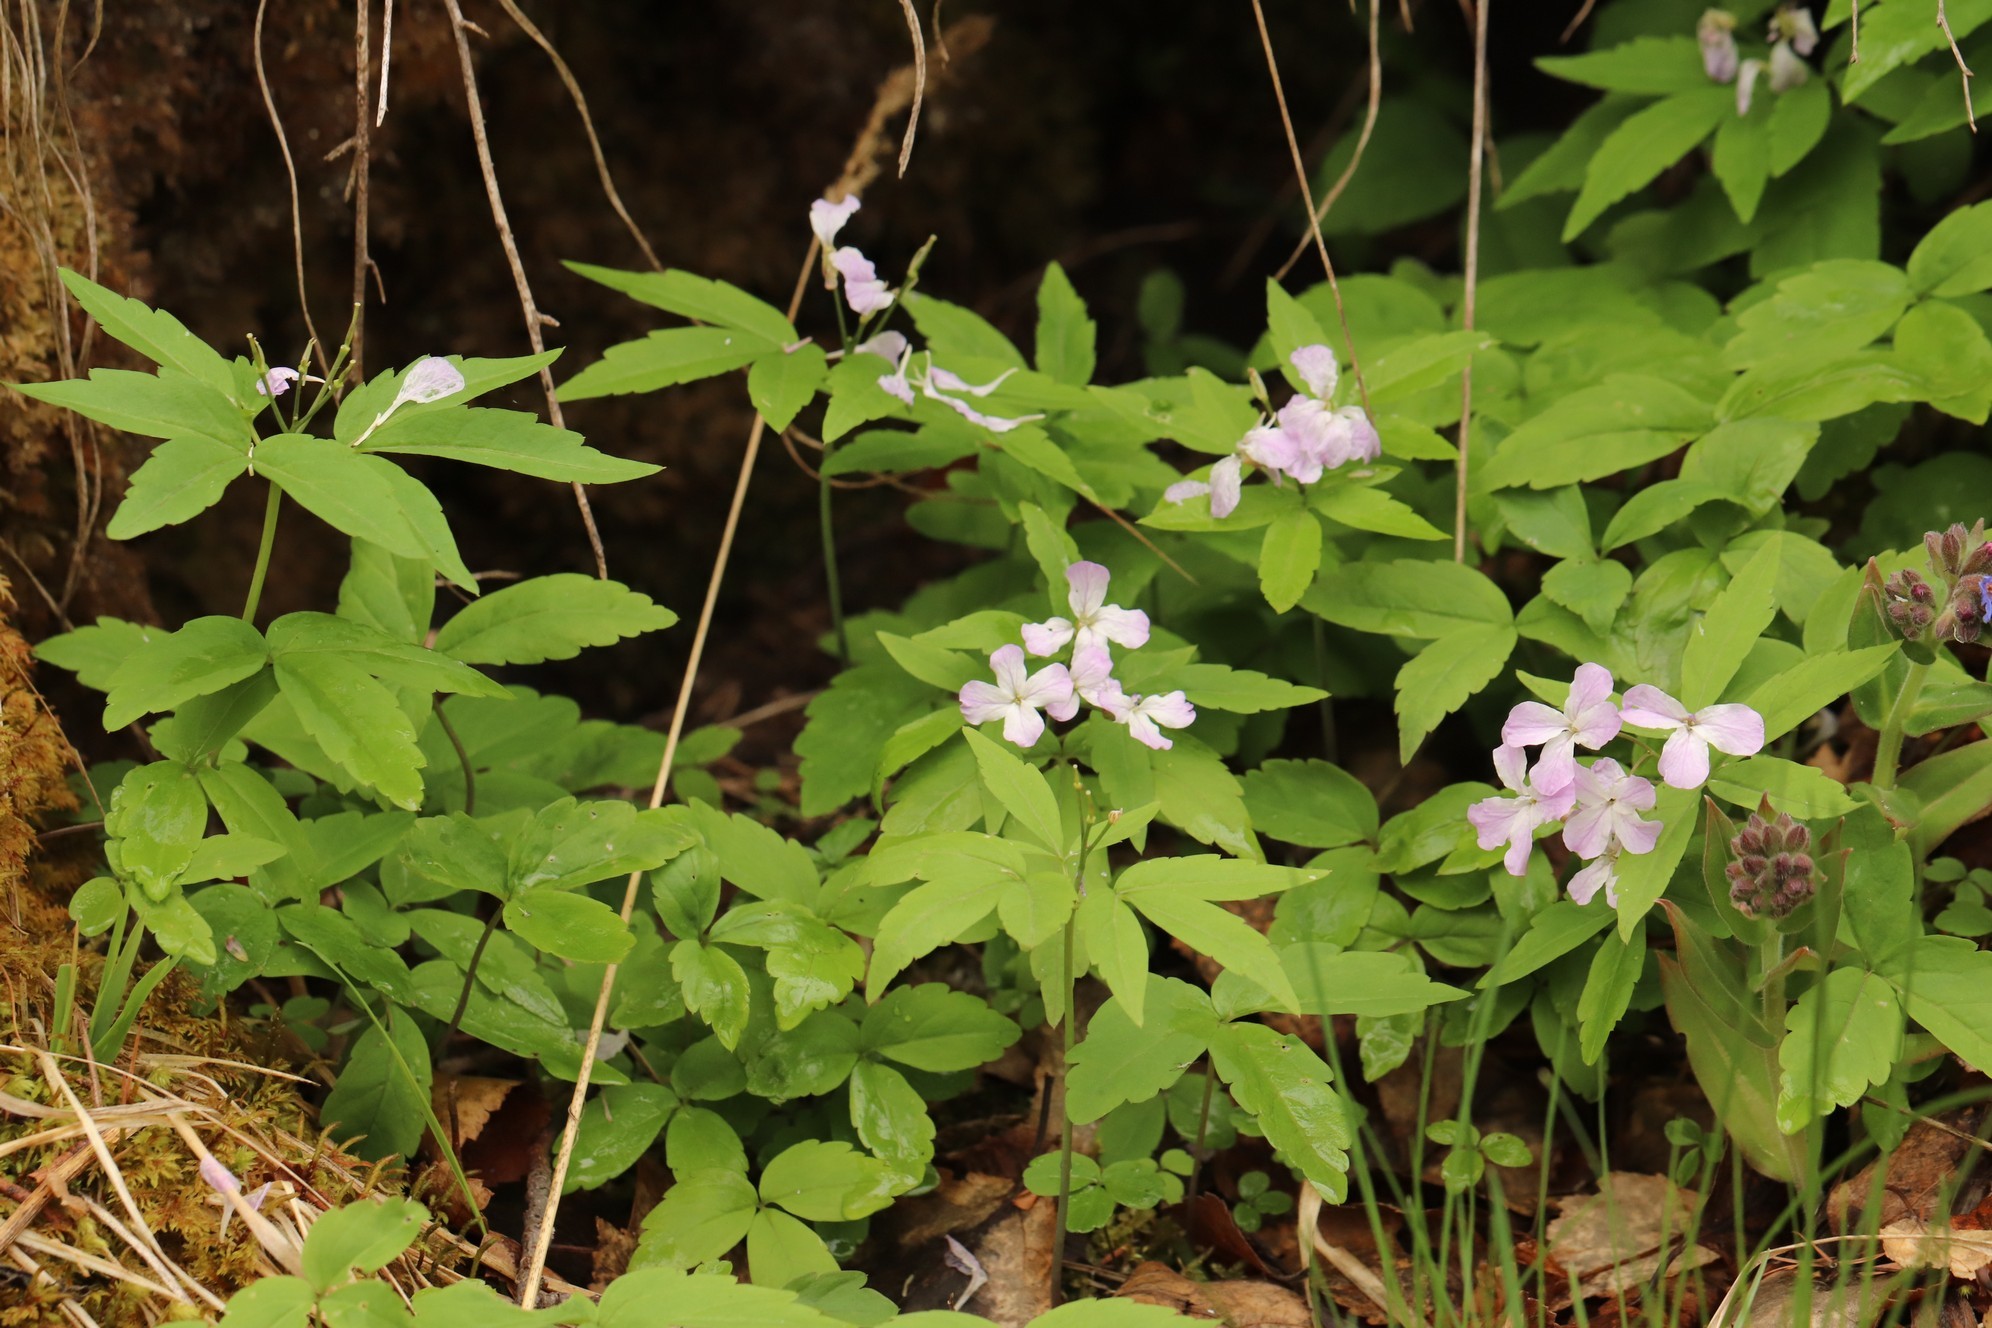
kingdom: Plantae
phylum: Tracheophyta
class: Magnoliopsida
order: Brassicales
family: Brassicaceae
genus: Cardamine
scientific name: Cardamine altaica
